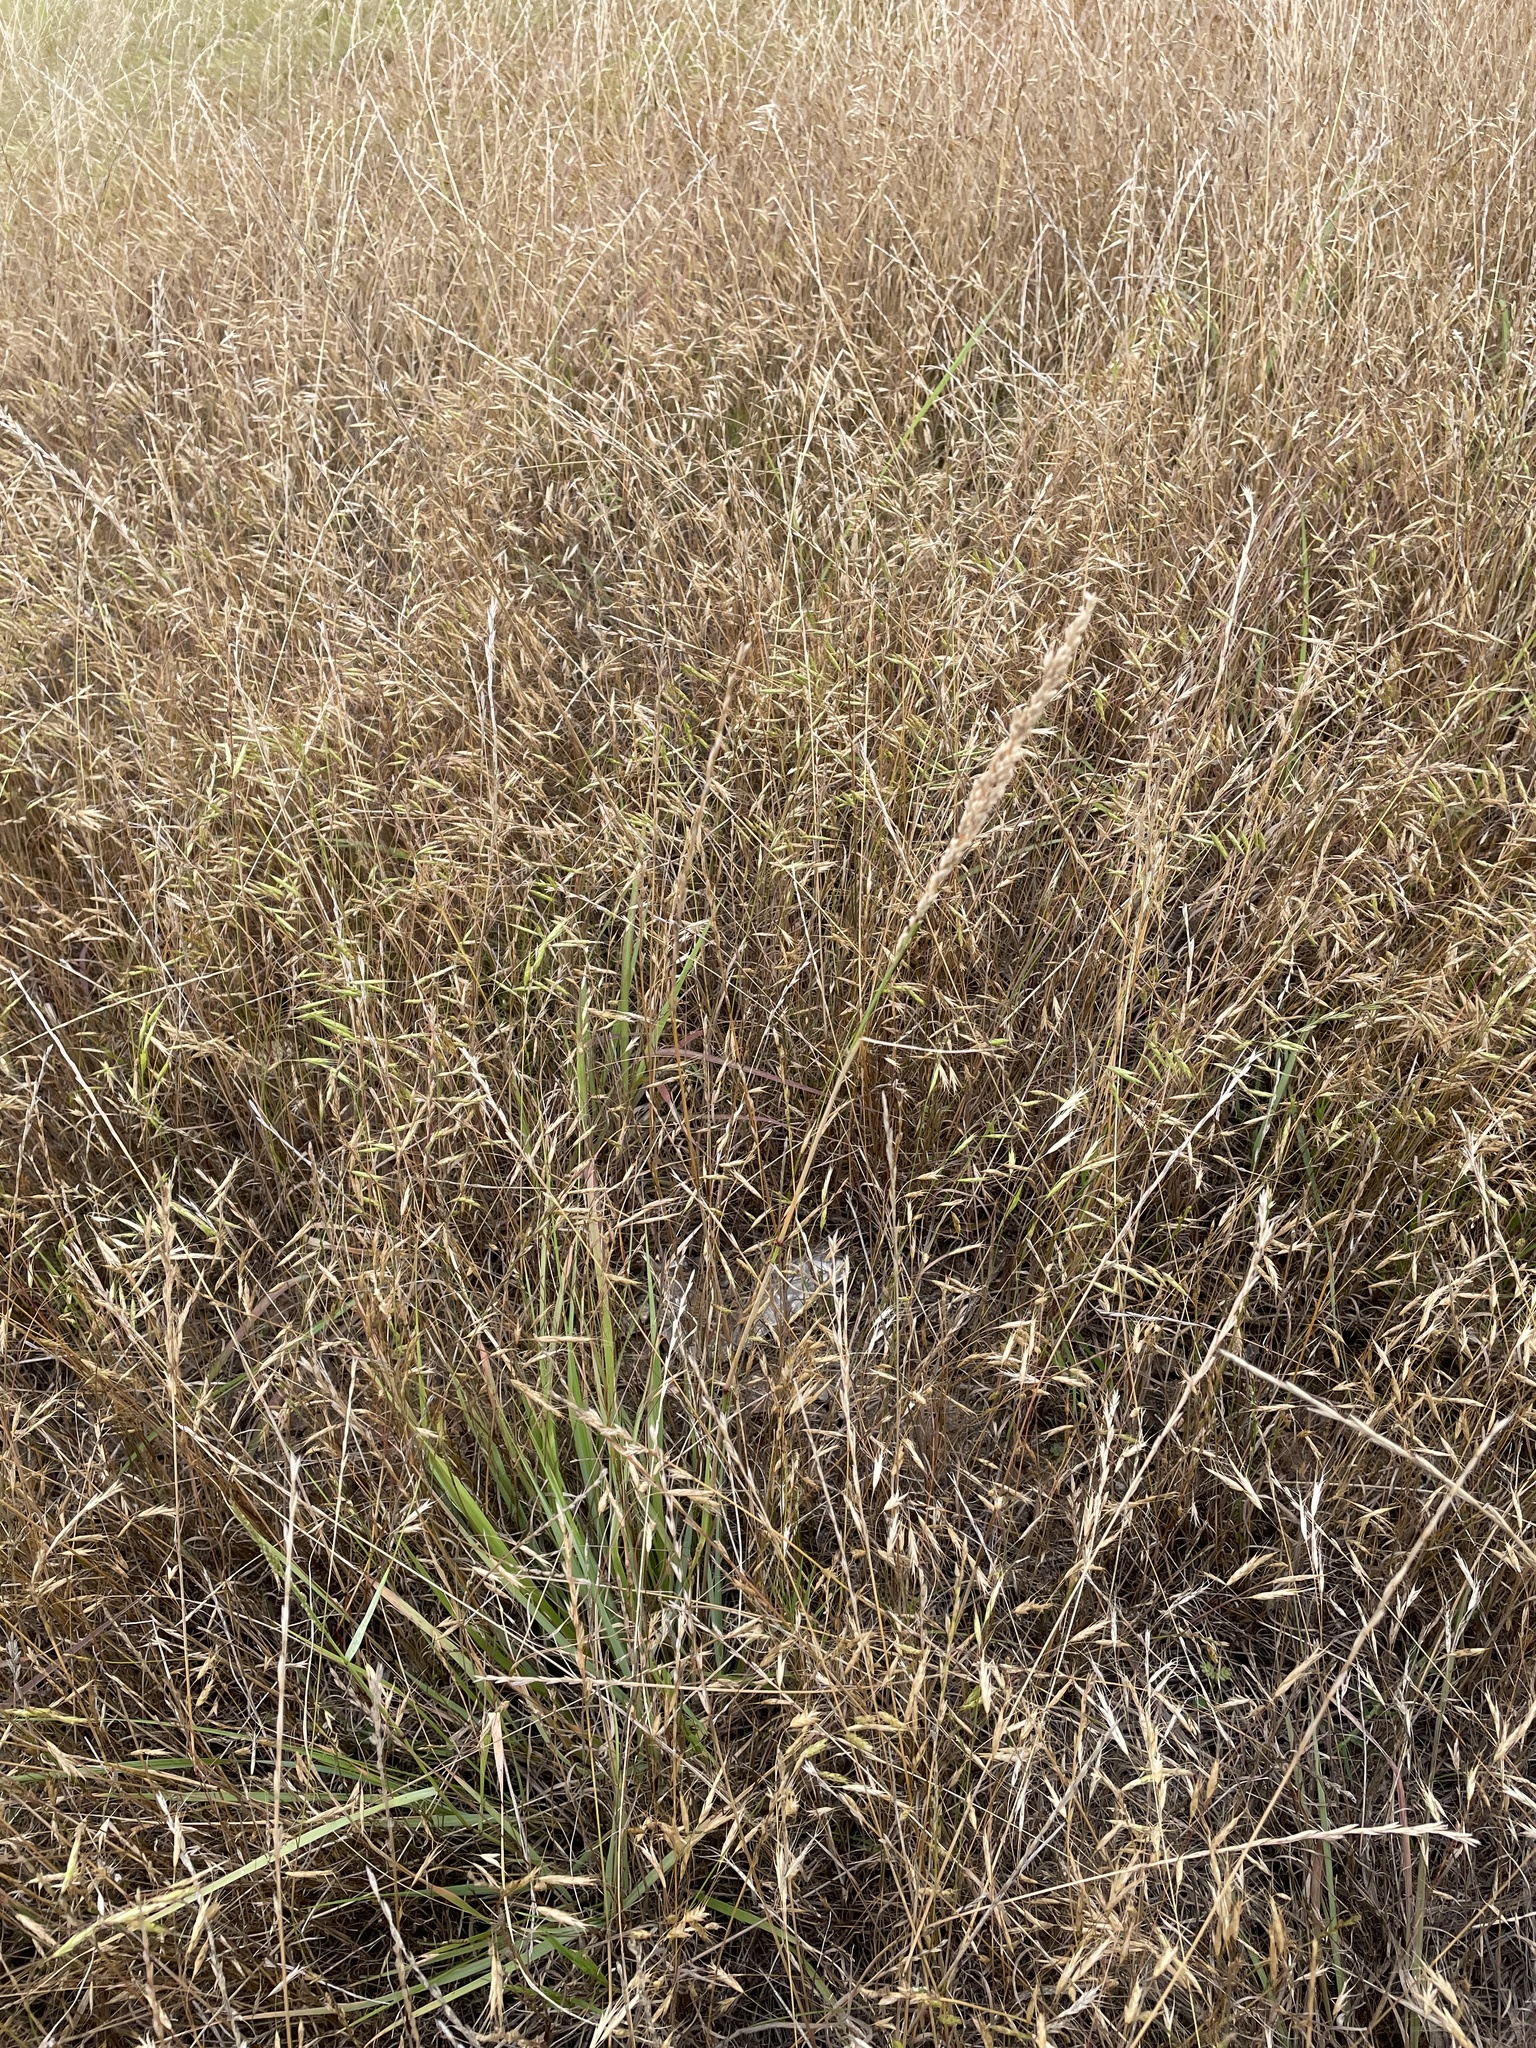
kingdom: Plantae
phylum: Tracheophyta
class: Liliopsida
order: Poales
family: Poaceae
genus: Tridens
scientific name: Tridens albescens
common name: White tridens
